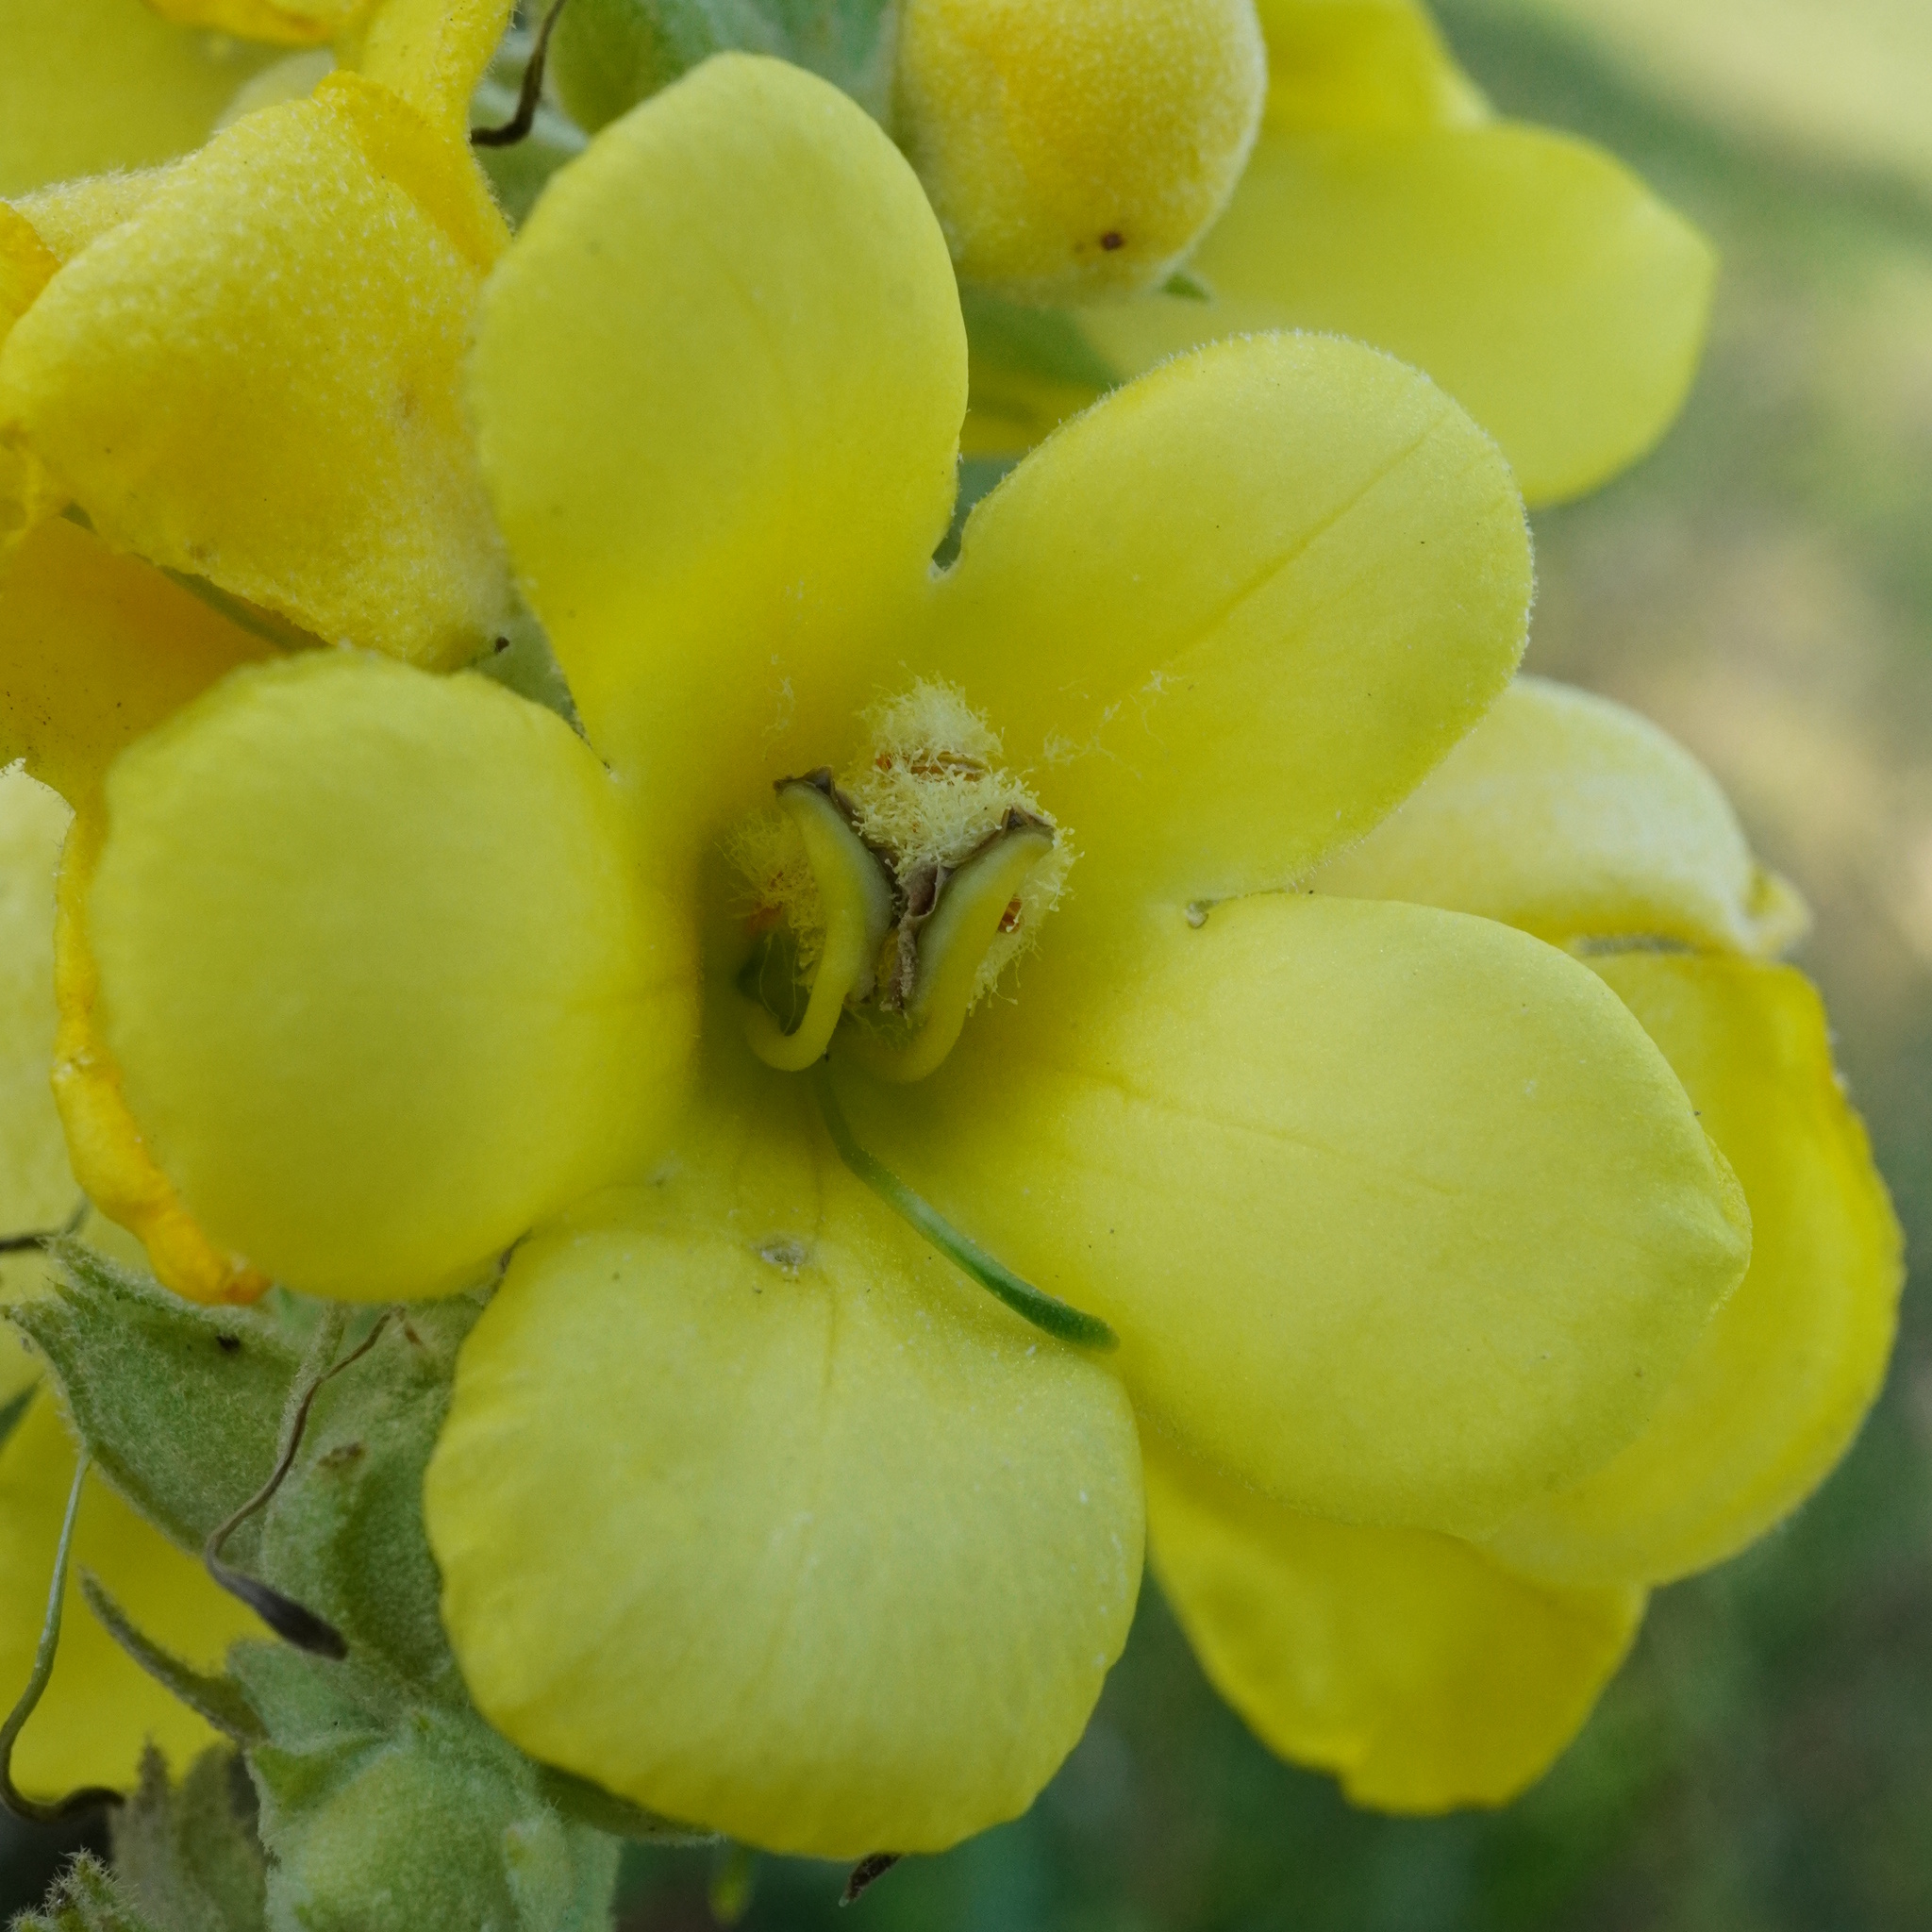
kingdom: Plantae
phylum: Tracheophyta
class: Magnoliopsida
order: Lamiales
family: Scrophulariaceae
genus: Verbascum
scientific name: Verbascum phlomoides
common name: Orange mullein
